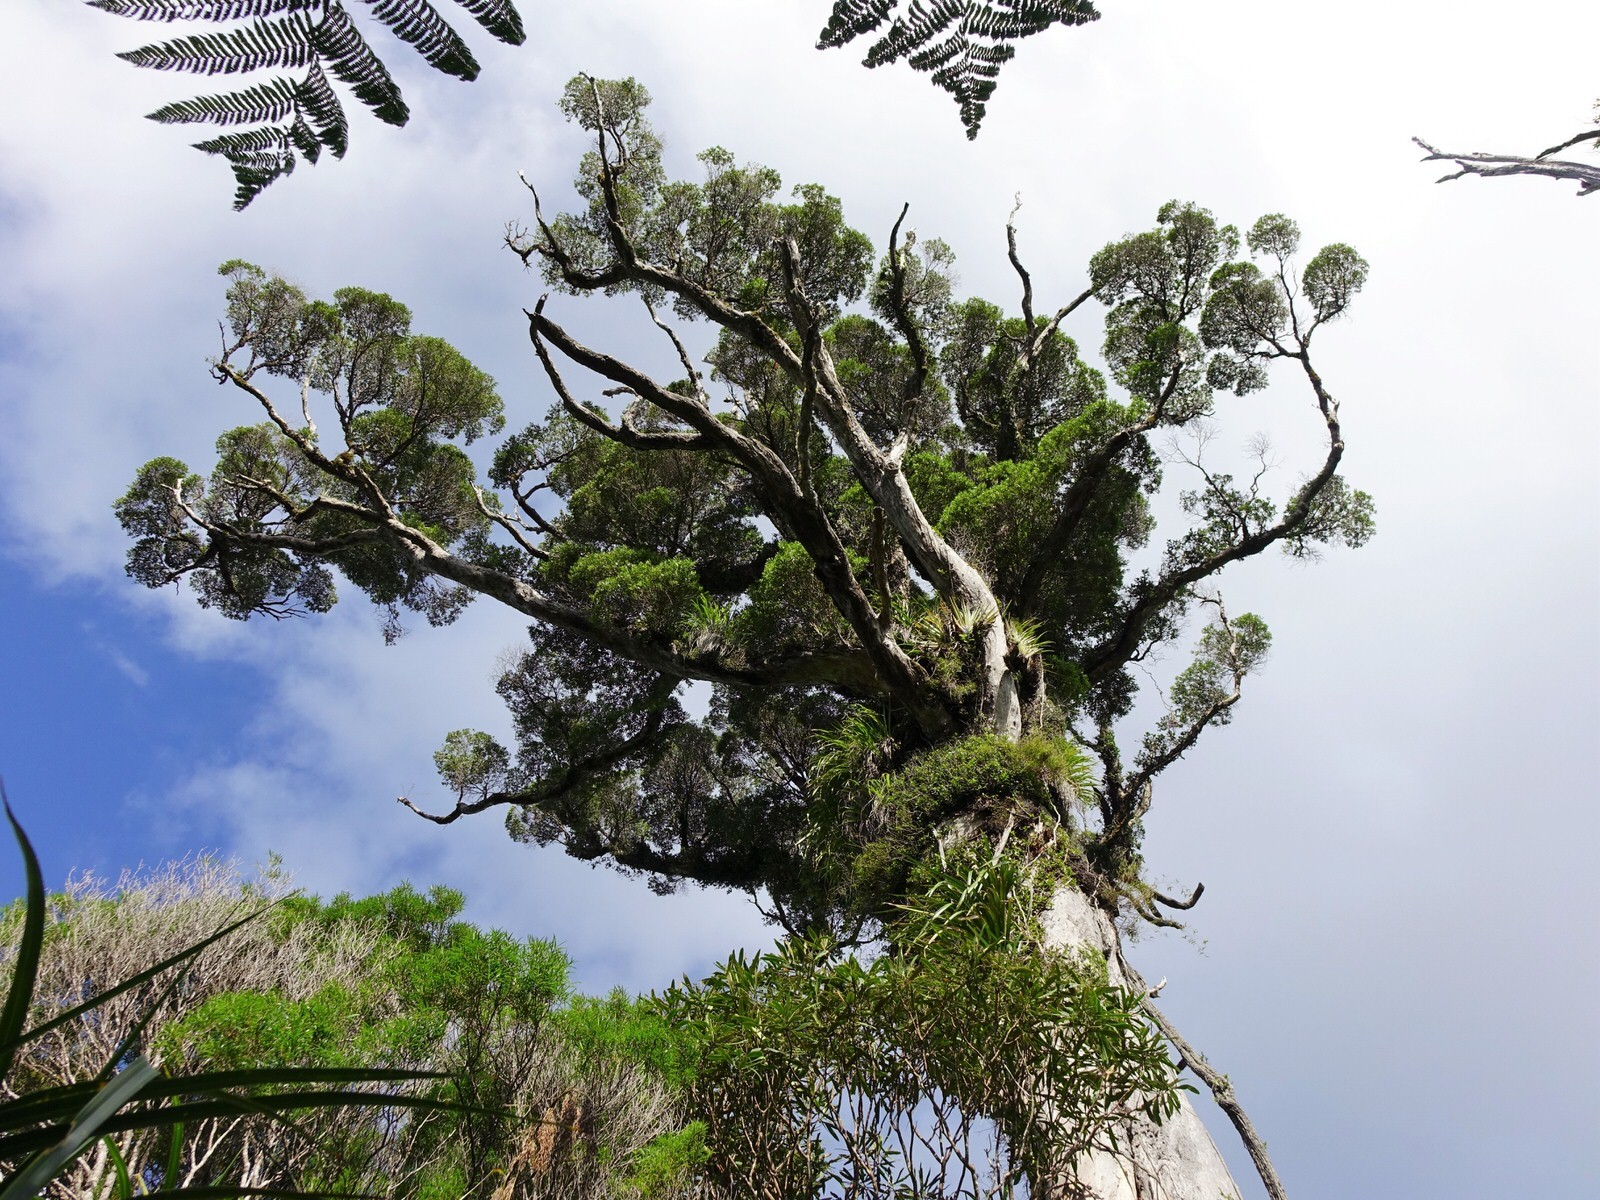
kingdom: Plantae
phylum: Tracheophyta
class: Magnoliopsida
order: Myrtales
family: Myrtaceae
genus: Metrosideros
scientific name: Metrosideros robusta
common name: Northern rata
